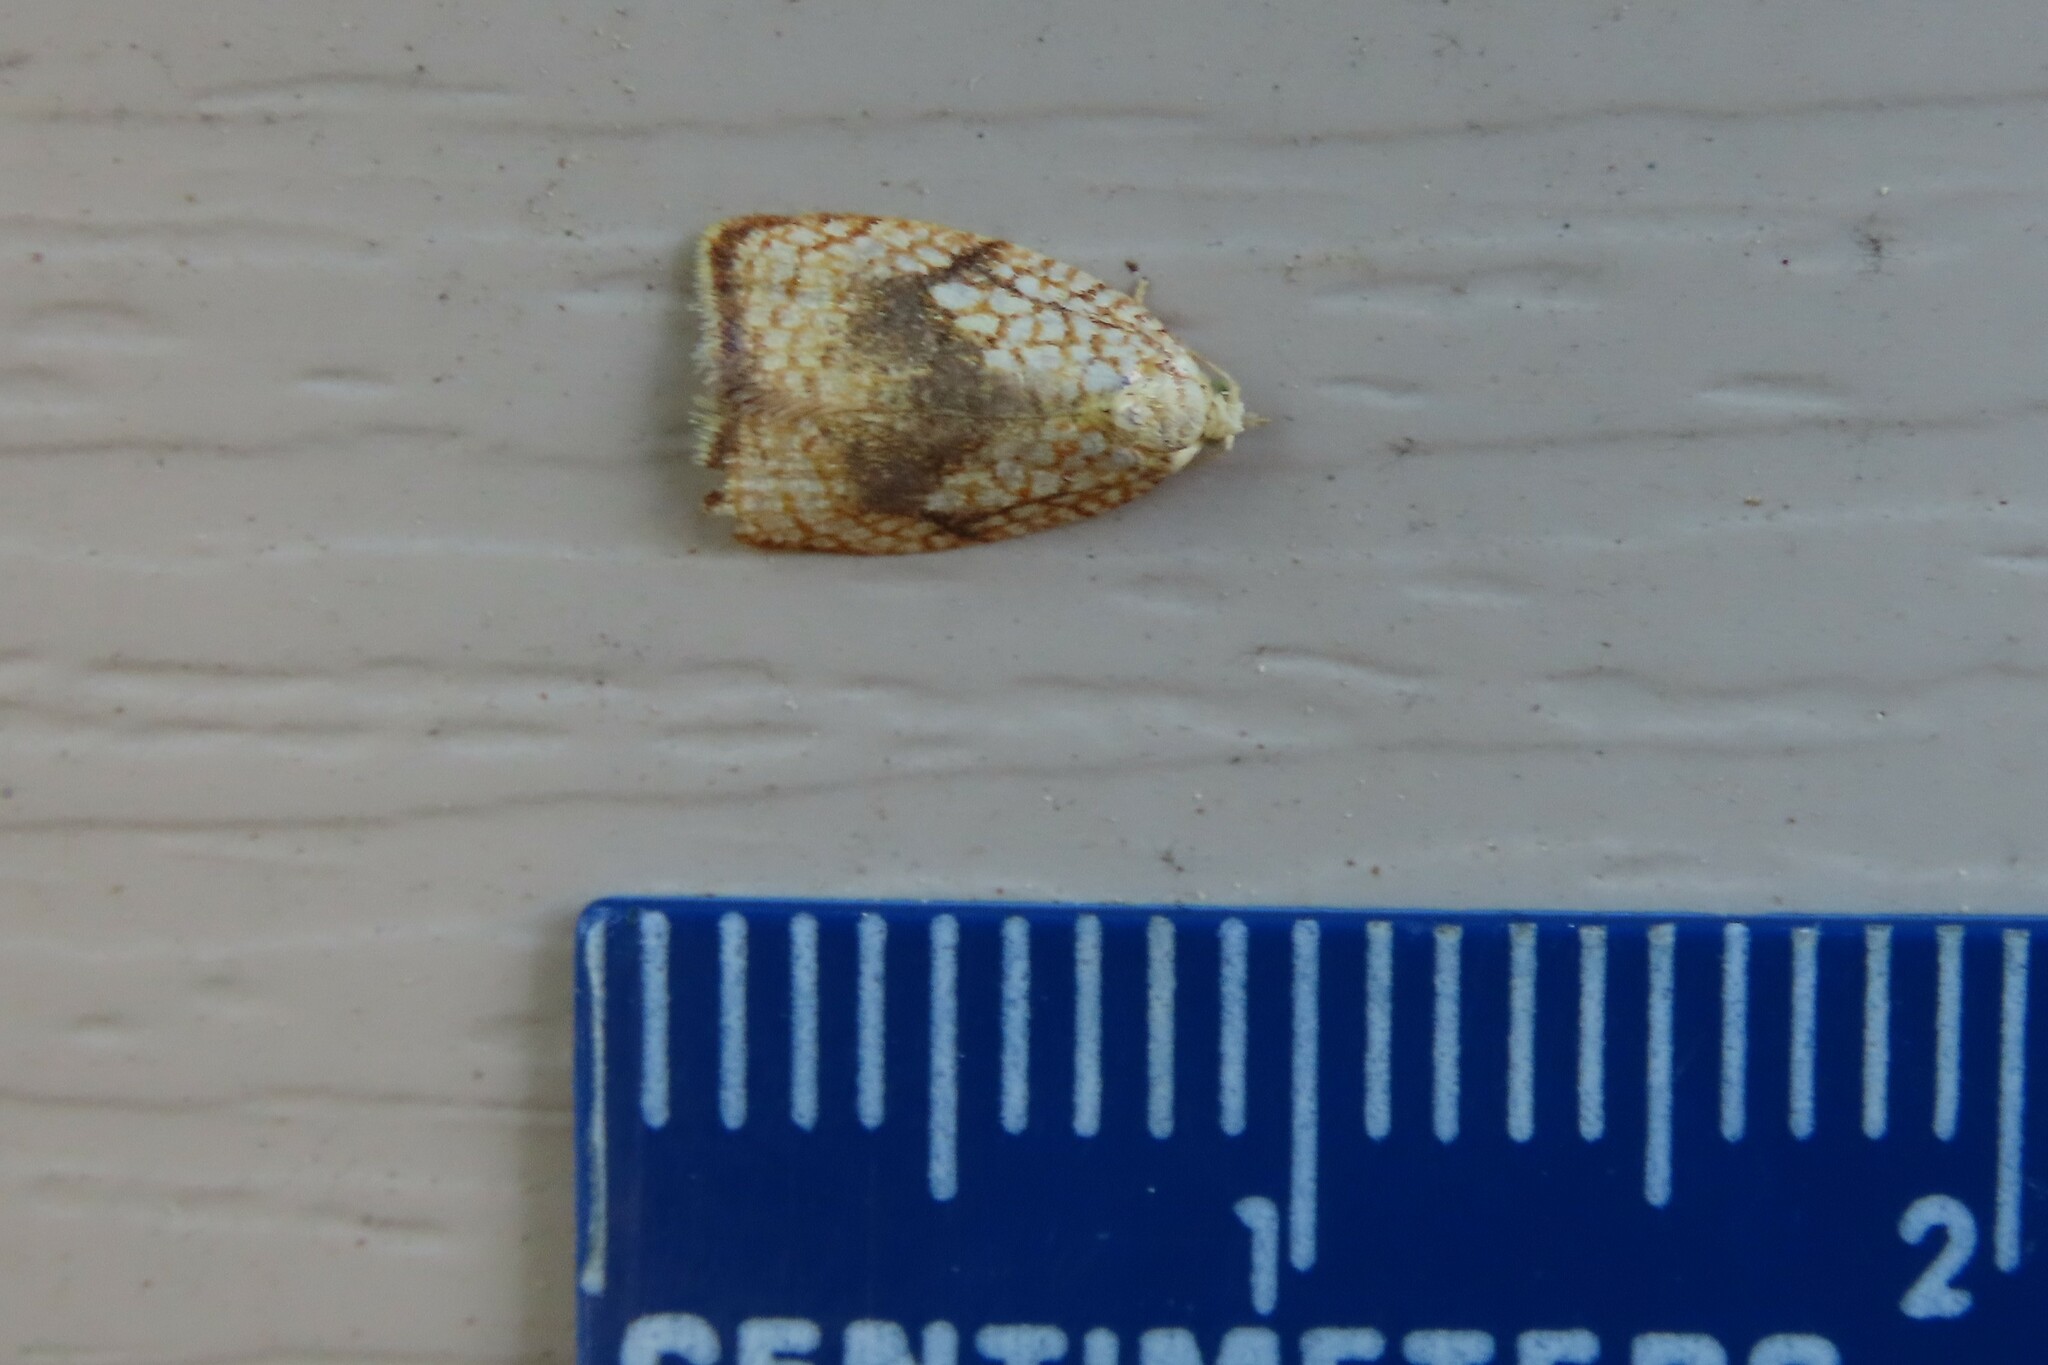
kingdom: Animalia
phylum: Arthropoda
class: Insecta
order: Lepidoptera
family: Tortricidae
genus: Acleris
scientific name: Acleris forsskaleana
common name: Maple button
